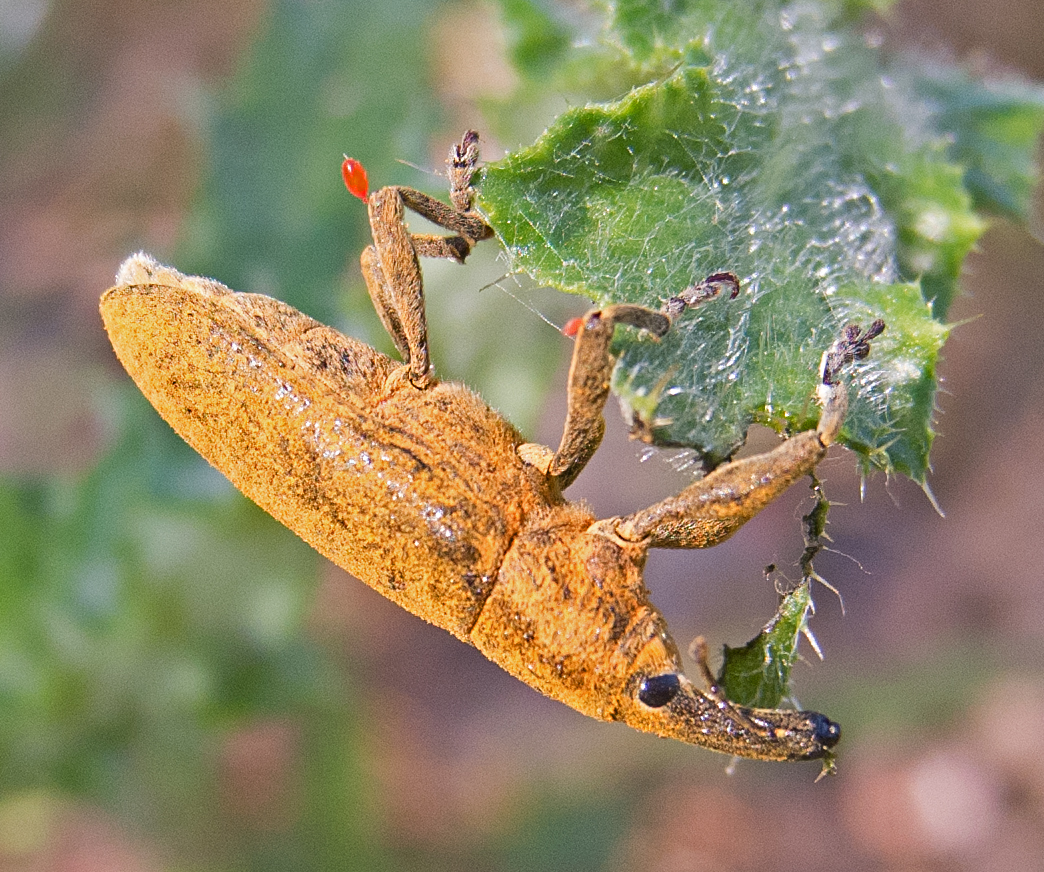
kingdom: Animalia
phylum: Arthropoda
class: Insecta
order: Coleoptera
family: Curculionidae
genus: Lixus
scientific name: Lixus pulverulentus
